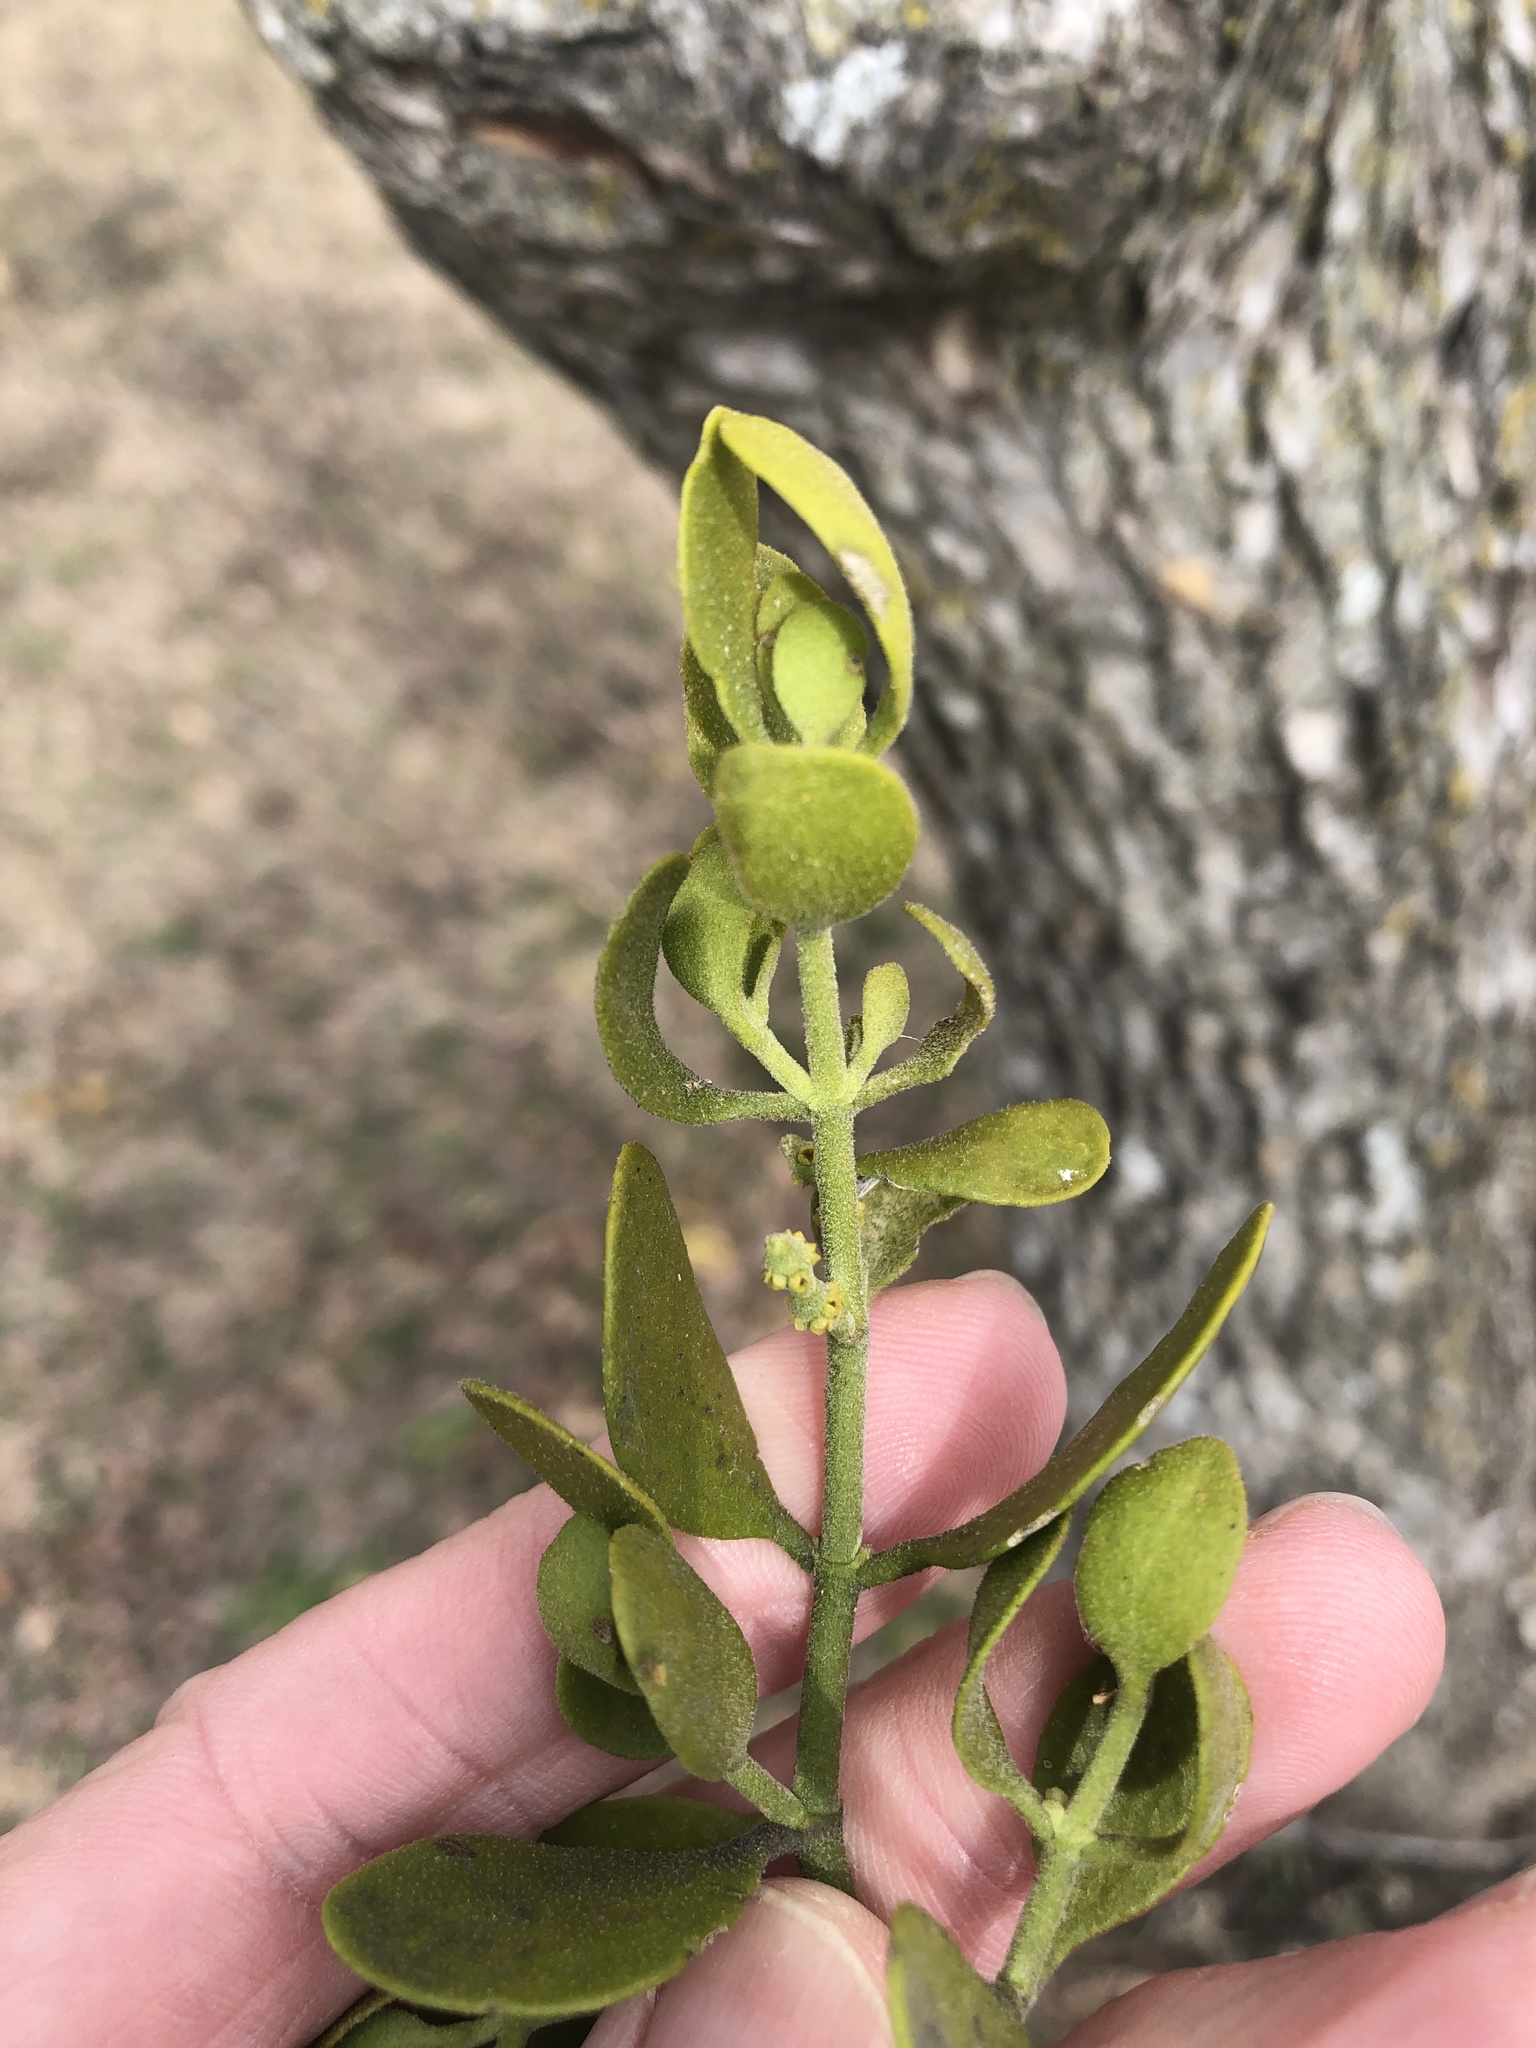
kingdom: Plantae
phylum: Tracheophyta
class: Magnoliopsida
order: Santalales
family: Viscaceae
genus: Phoradendron
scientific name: Phoradendron leucarpum
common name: Pacific mistletoe
